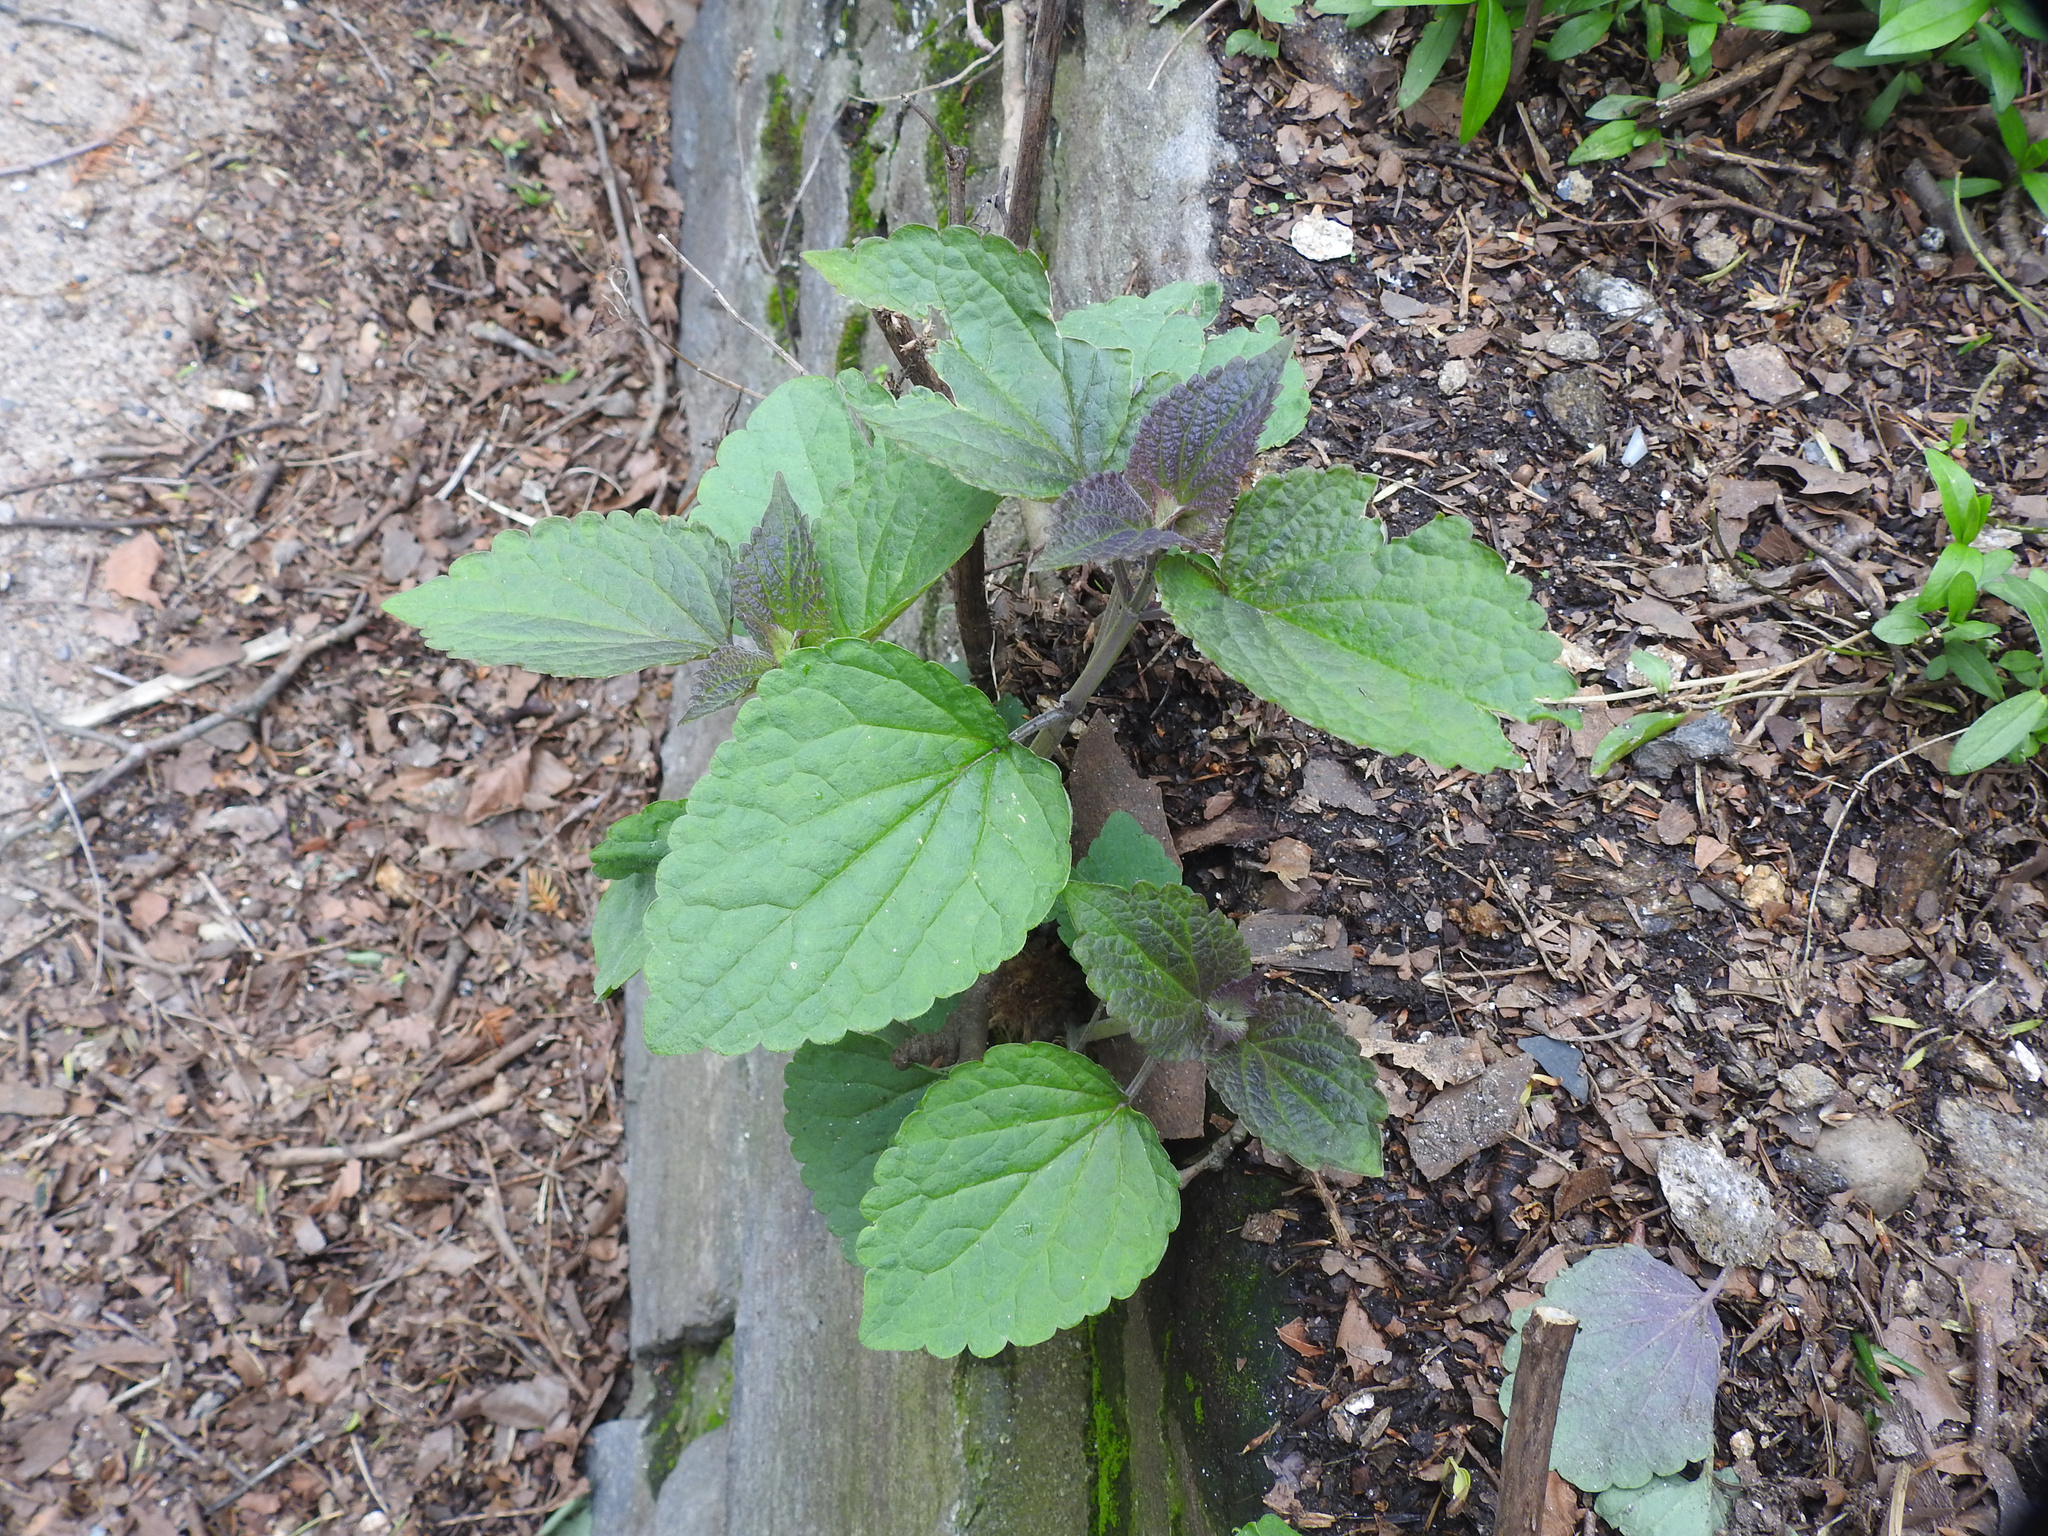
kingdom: Plantae
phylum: Tracheophyta
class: Magnoliopsida
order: Lamiales
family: Lamiaceae
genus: Agastache
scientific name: Agastache foeniculum
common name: Anise hyssop
